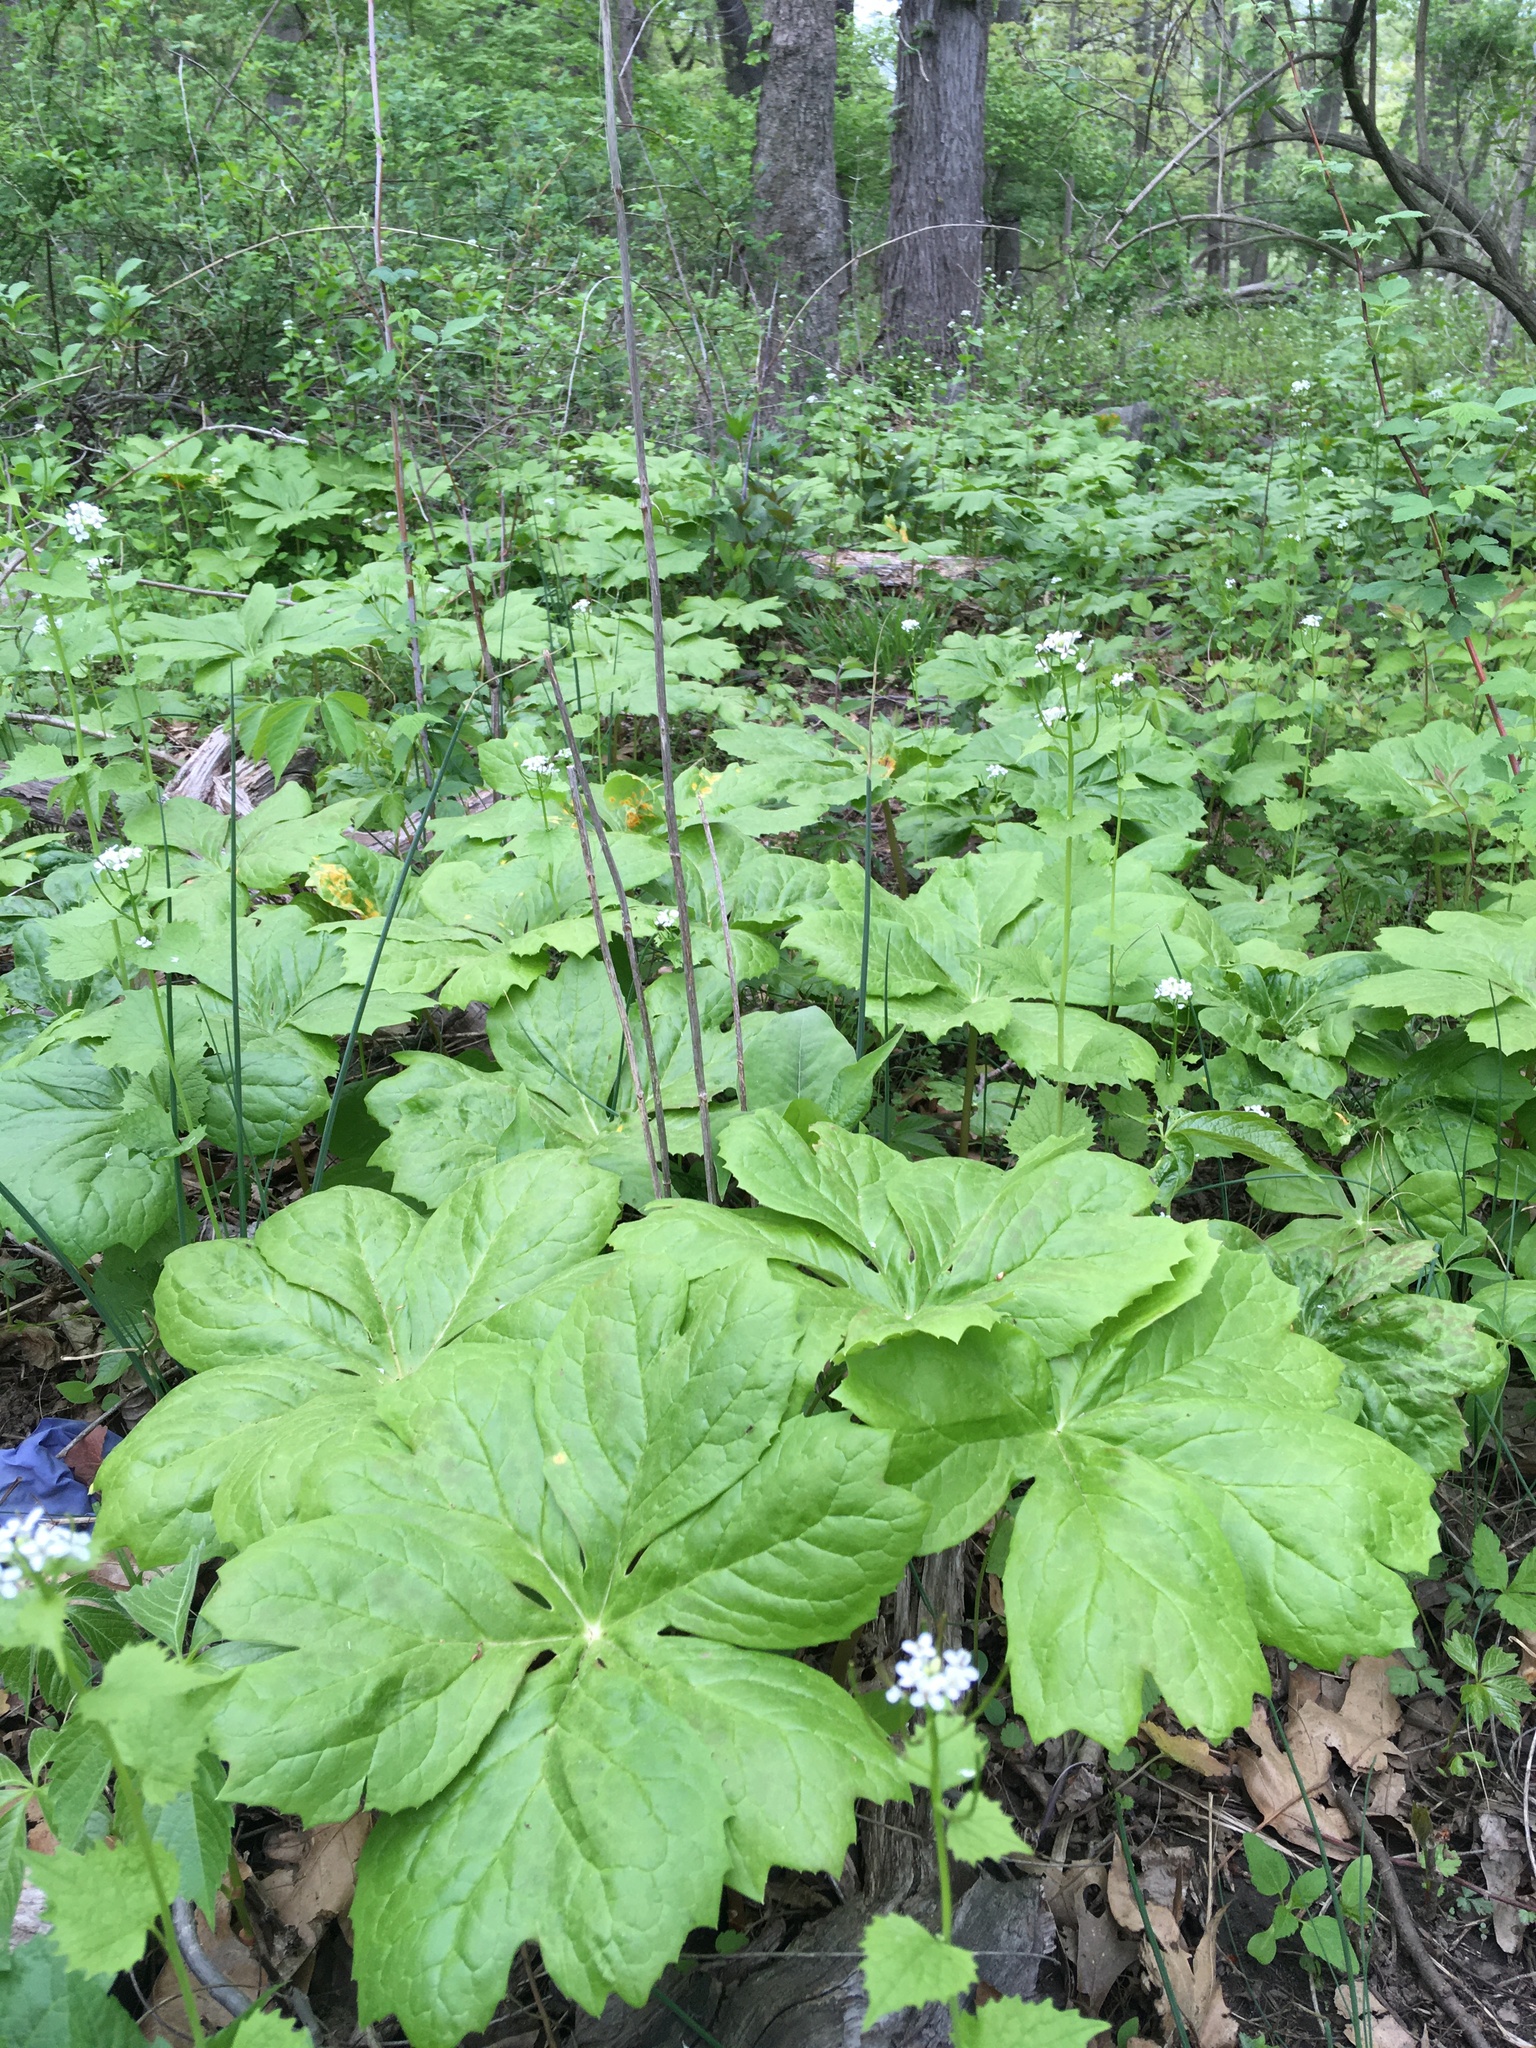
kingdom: Plantae
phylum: Tracheophyta
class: Magnoliopsida
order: Ranunculales
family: Berberidaceae
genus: Podophyllum
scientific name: Podophyllum peltatum
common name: Wild mandrake
